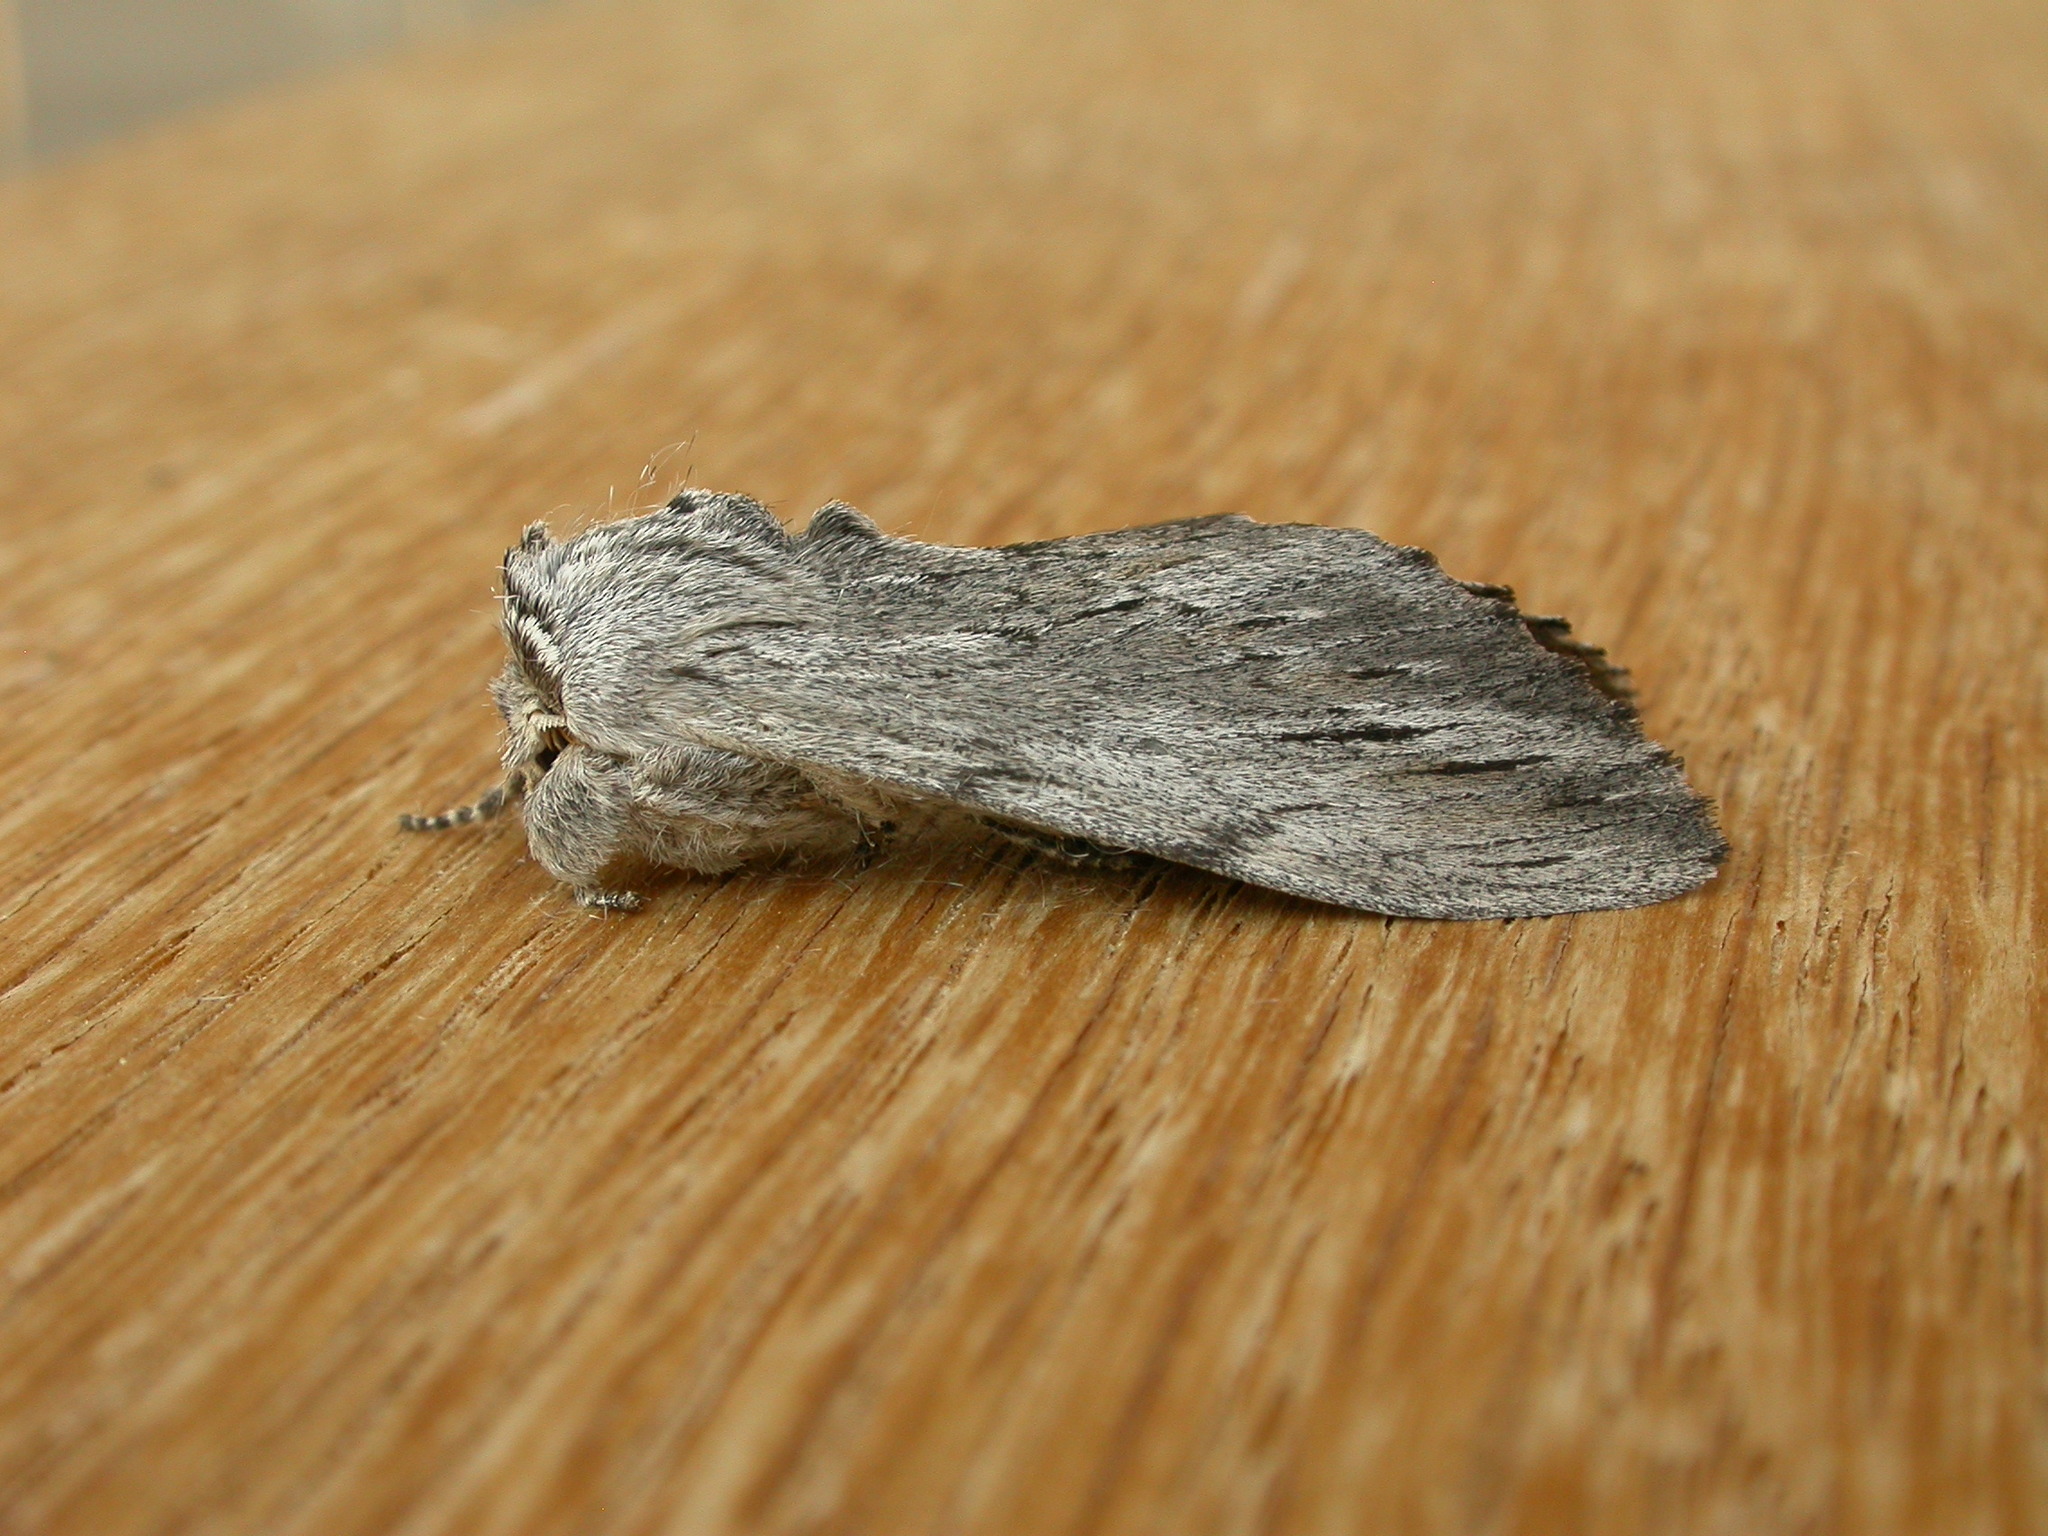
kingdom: Animalia
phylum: Arthropoda
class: Insecta
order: Lepidoptera
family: Notodontidae
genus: Destolmia
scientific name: Destolmia lineata
